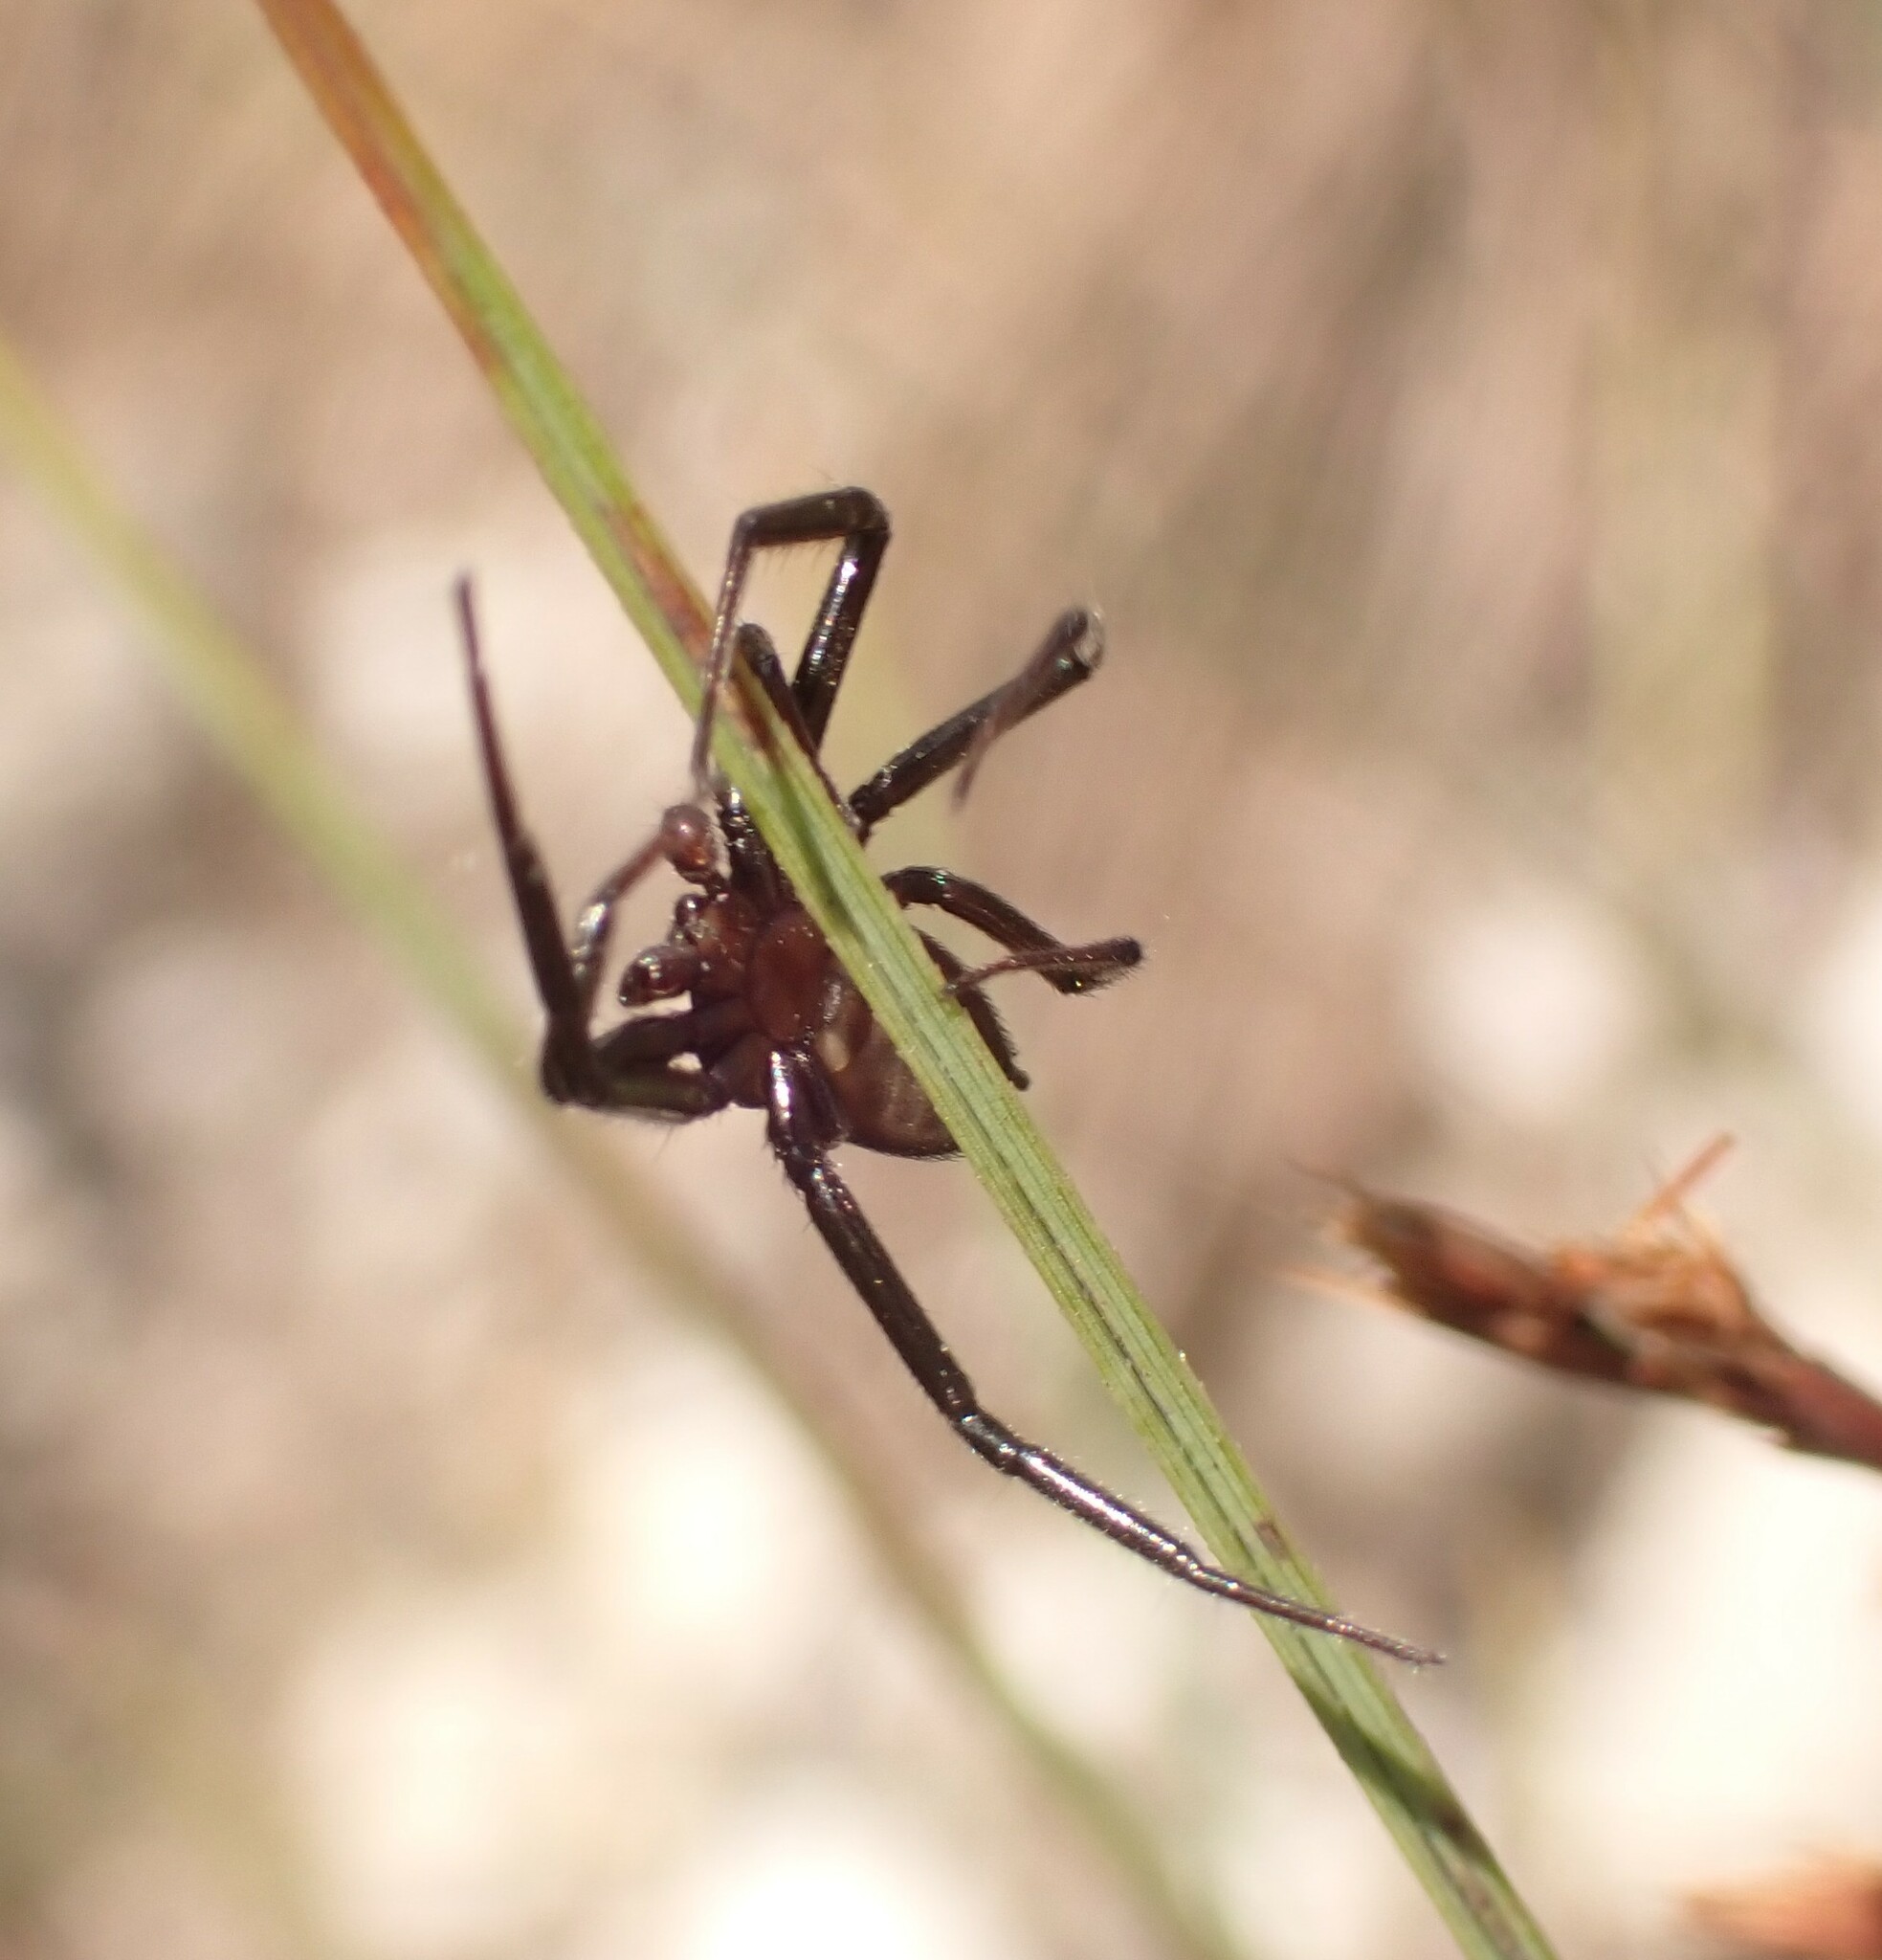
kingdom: Animalia
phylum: Arthropoda
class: Arachnida
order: Araneae
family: Trochanteriidae
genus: Vectius
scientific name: Vectius niger
